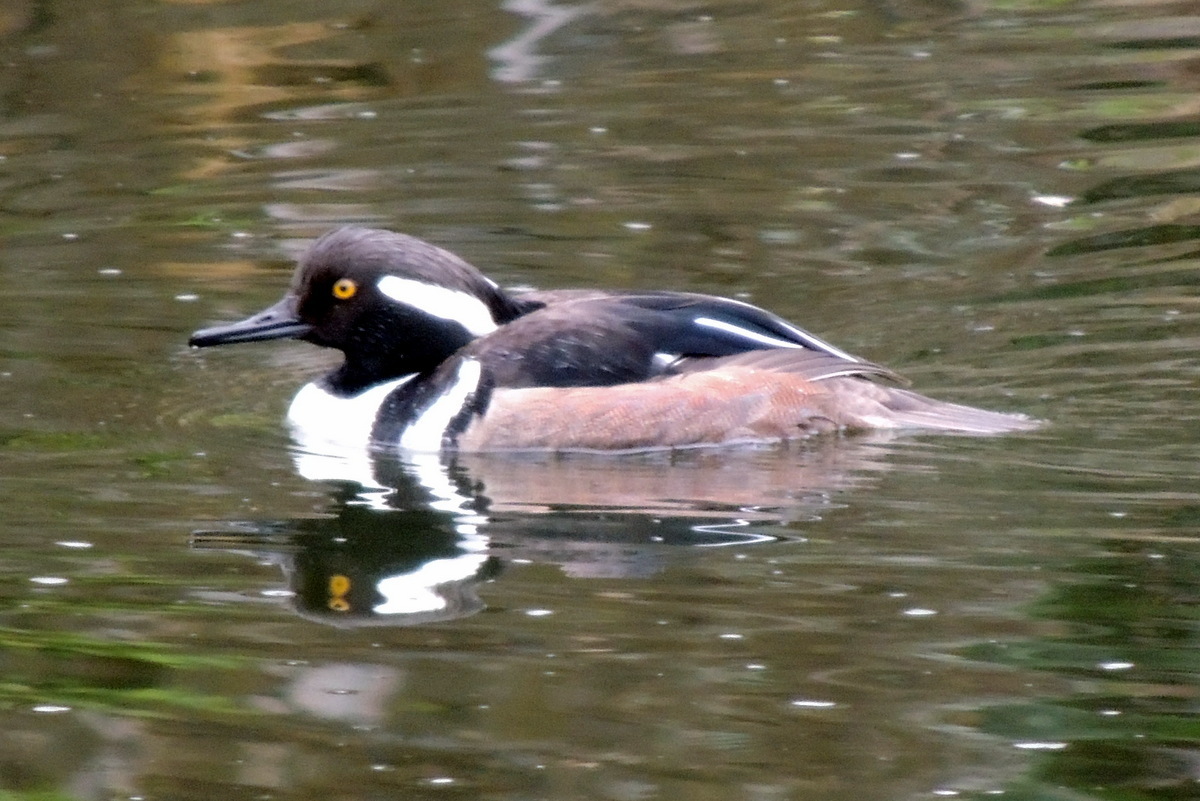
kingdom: Animalia
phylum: Chordata
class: Aves
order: Anseriformes
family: Anatidae
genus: Lophodytes
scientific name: Lophodytes cucullatus
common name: Hooded merganser
